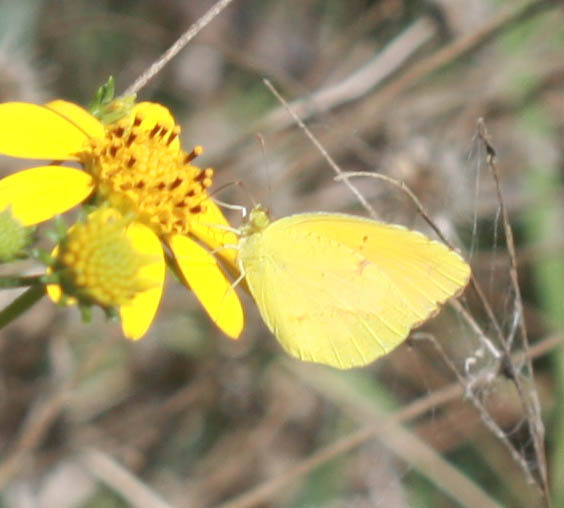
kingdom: Animalia
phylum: Arthropoda
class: Insecta
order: Lepidoptera
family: Pieridae
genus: Pyrisitia
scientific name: Pyrisitia lisa
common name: Little yellow
